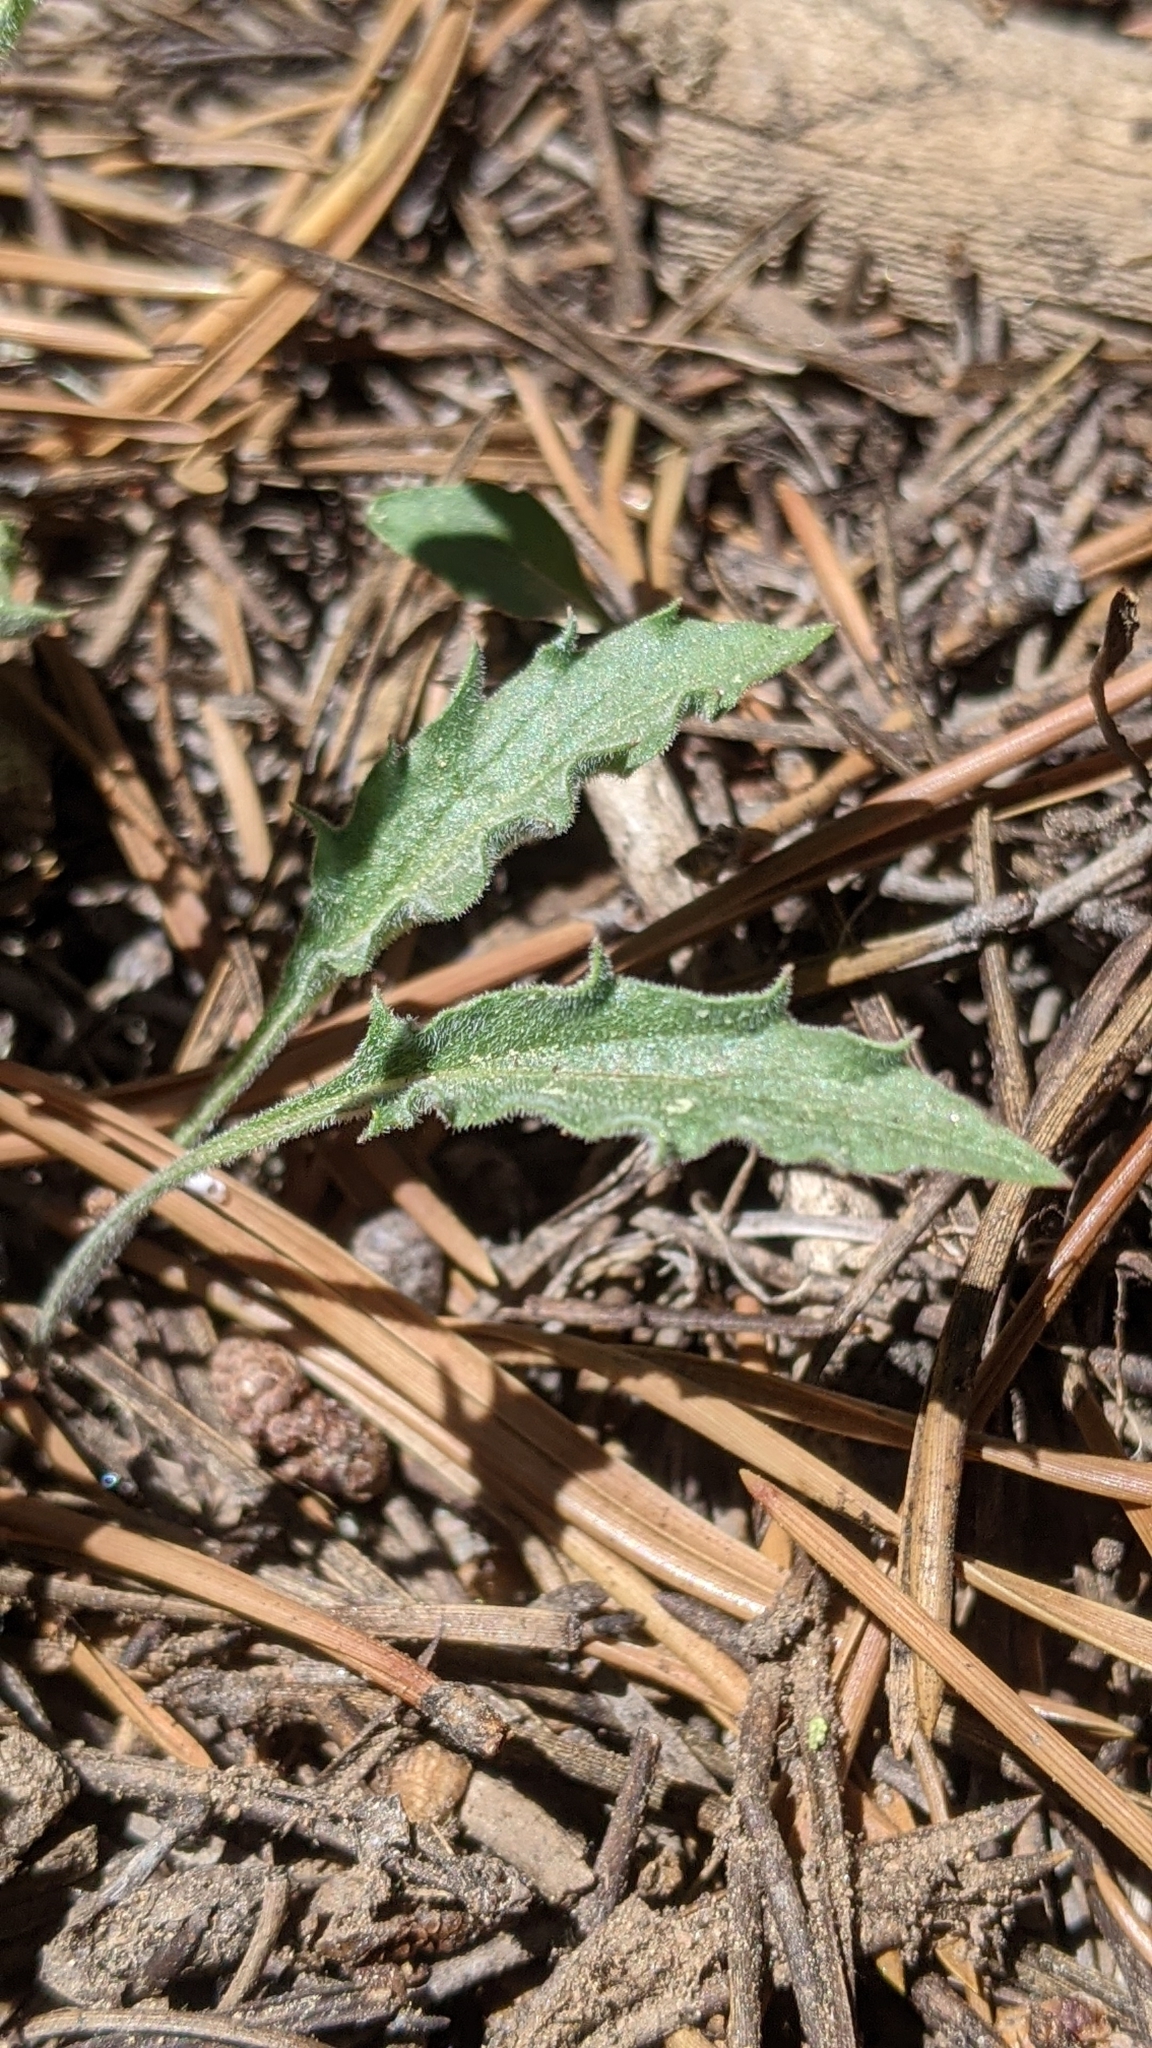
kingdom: Plantae
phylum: Tracheophyta
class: Magnoliopsida
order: Malpighiales
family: Violaceae
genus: Viola
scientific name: Viola pinetorum
